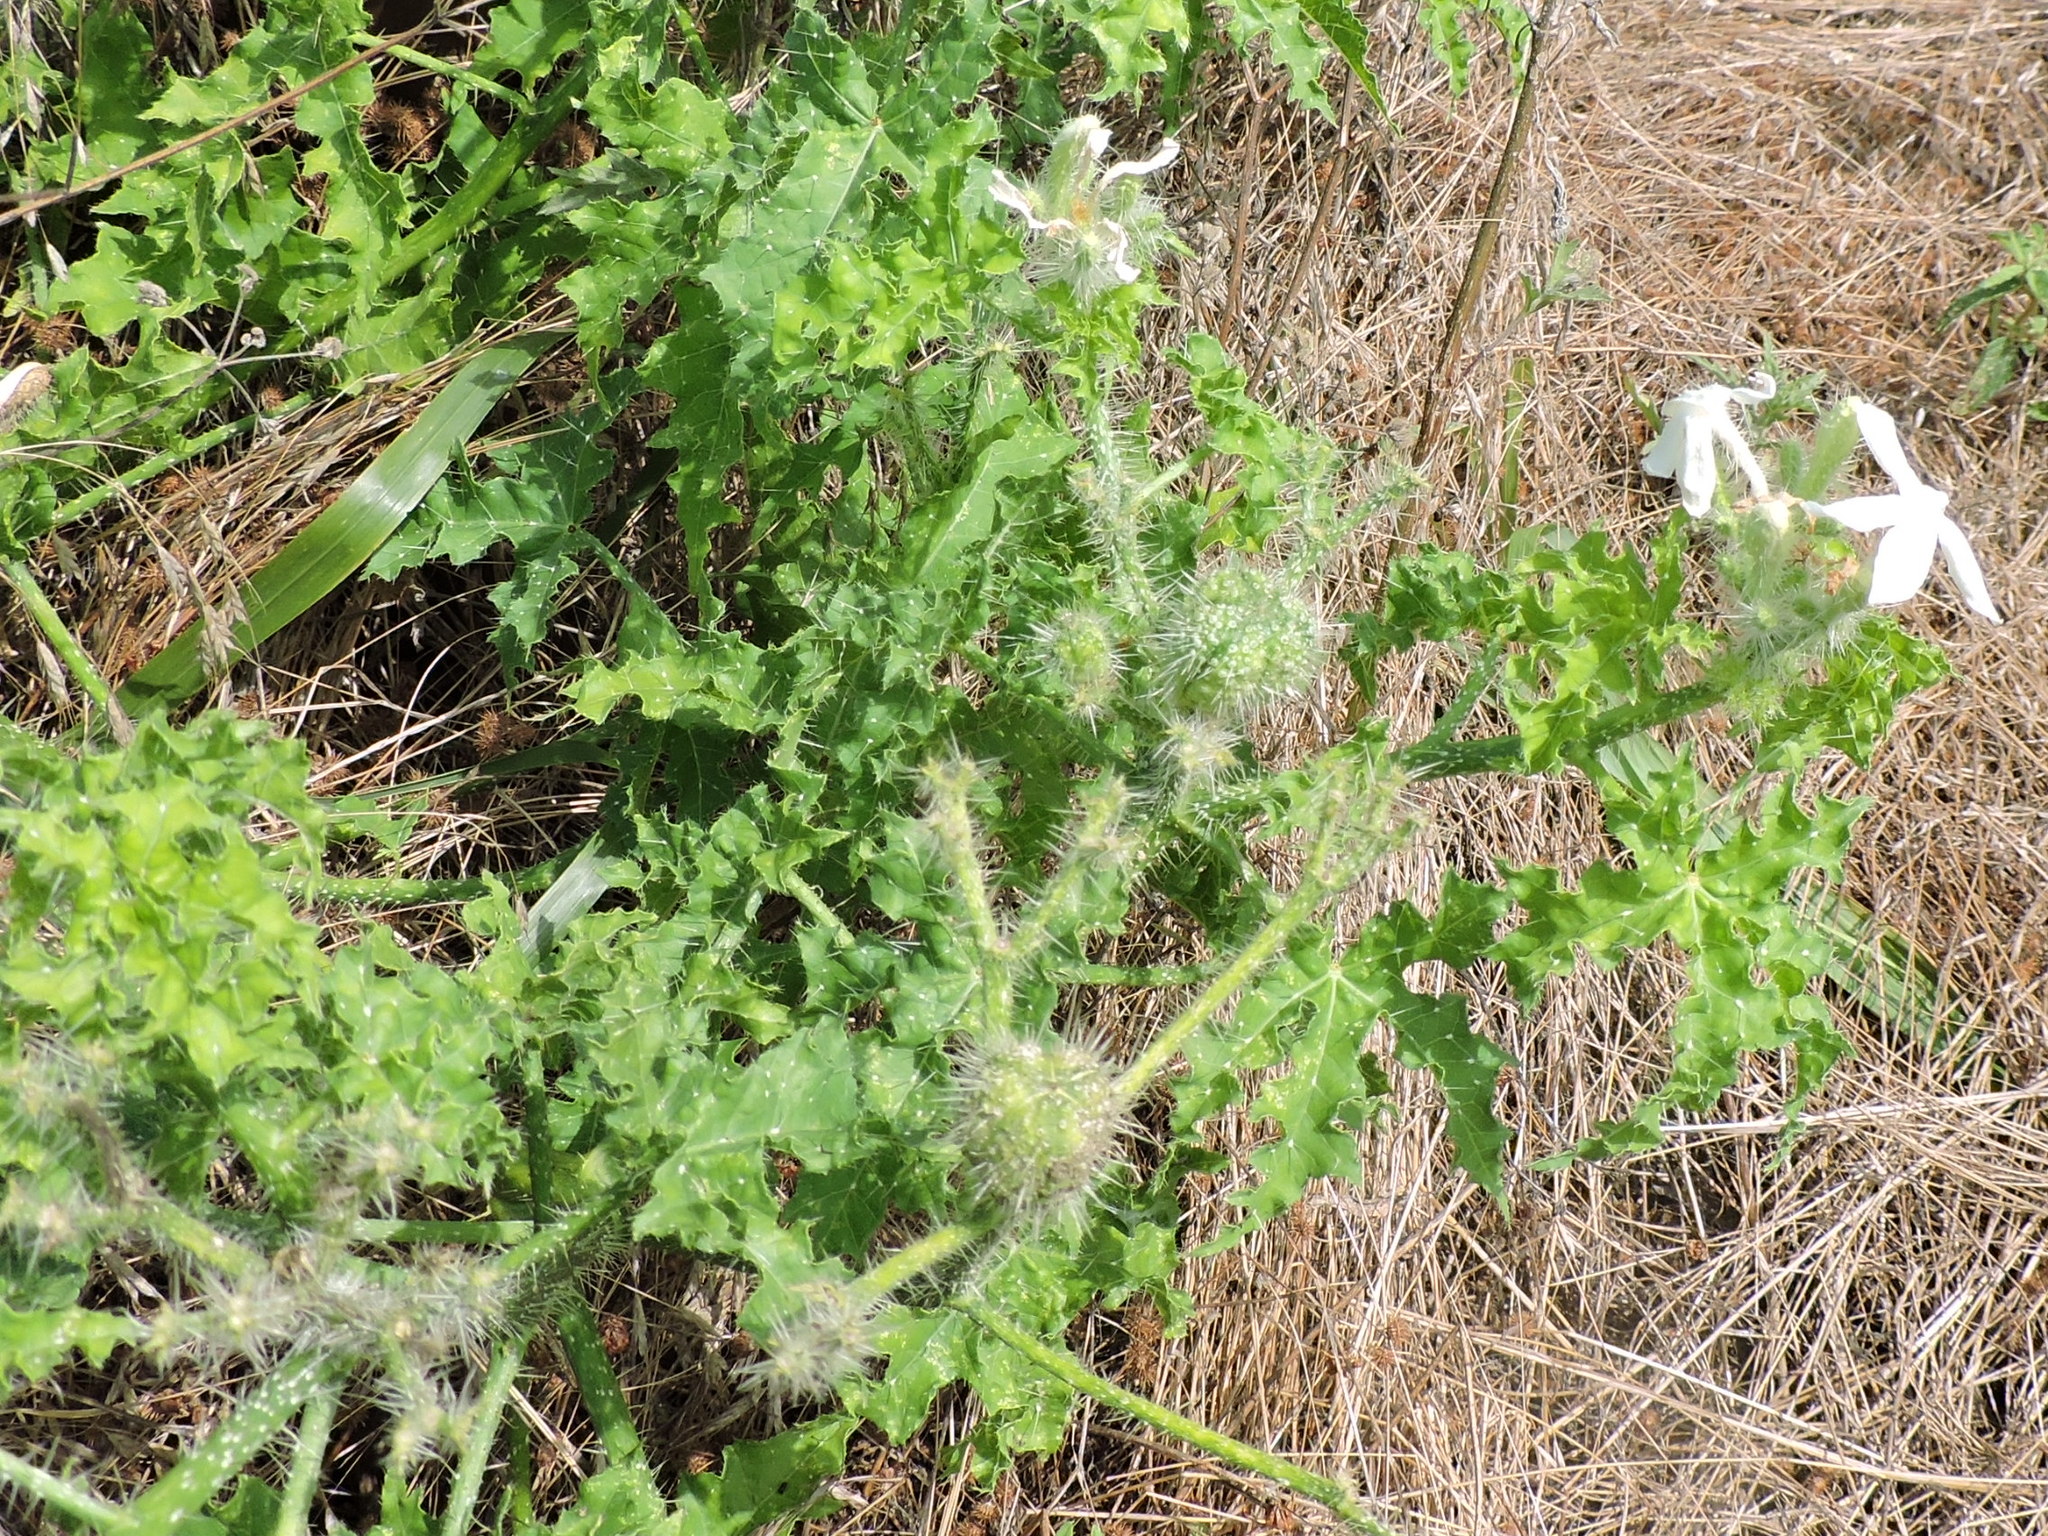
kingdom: Plantae
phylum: Tracheophyta
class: Magnoliopsida
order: Malpighiales
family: Euphorbiaceae
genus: Cnidoscolus
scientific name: Cnidoscolus texanus
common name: Texas bull-nettle
